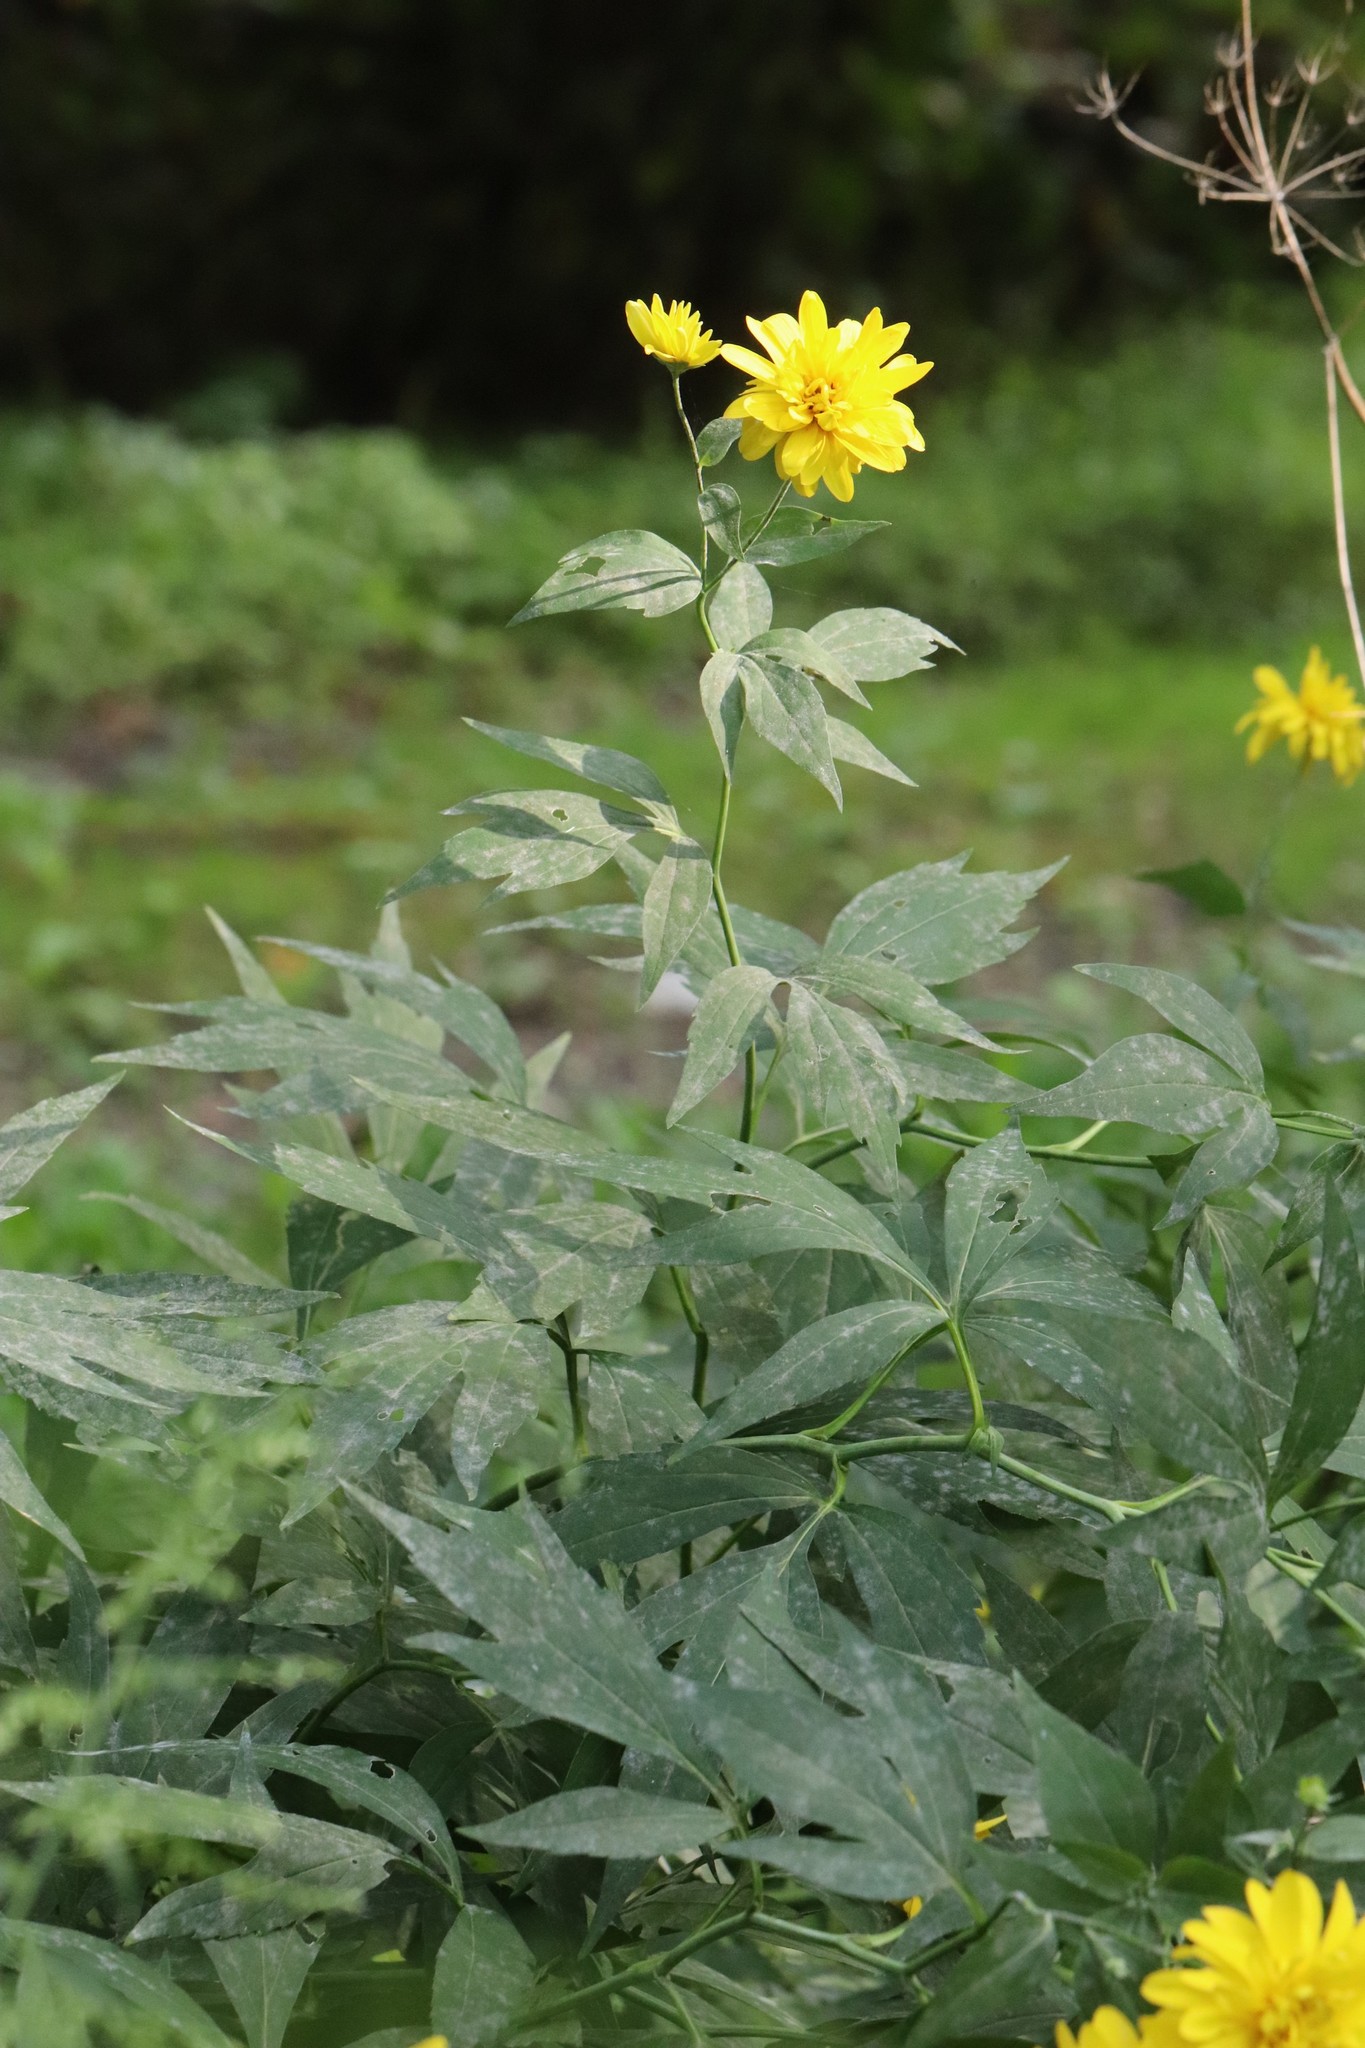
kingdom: Plantae
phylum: Tracheophyta
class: Magnoliopsida
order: Asterales
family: Asteraceae
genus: Rudbeckia
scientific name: Rudbeckia laciniata
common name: Coneflower
